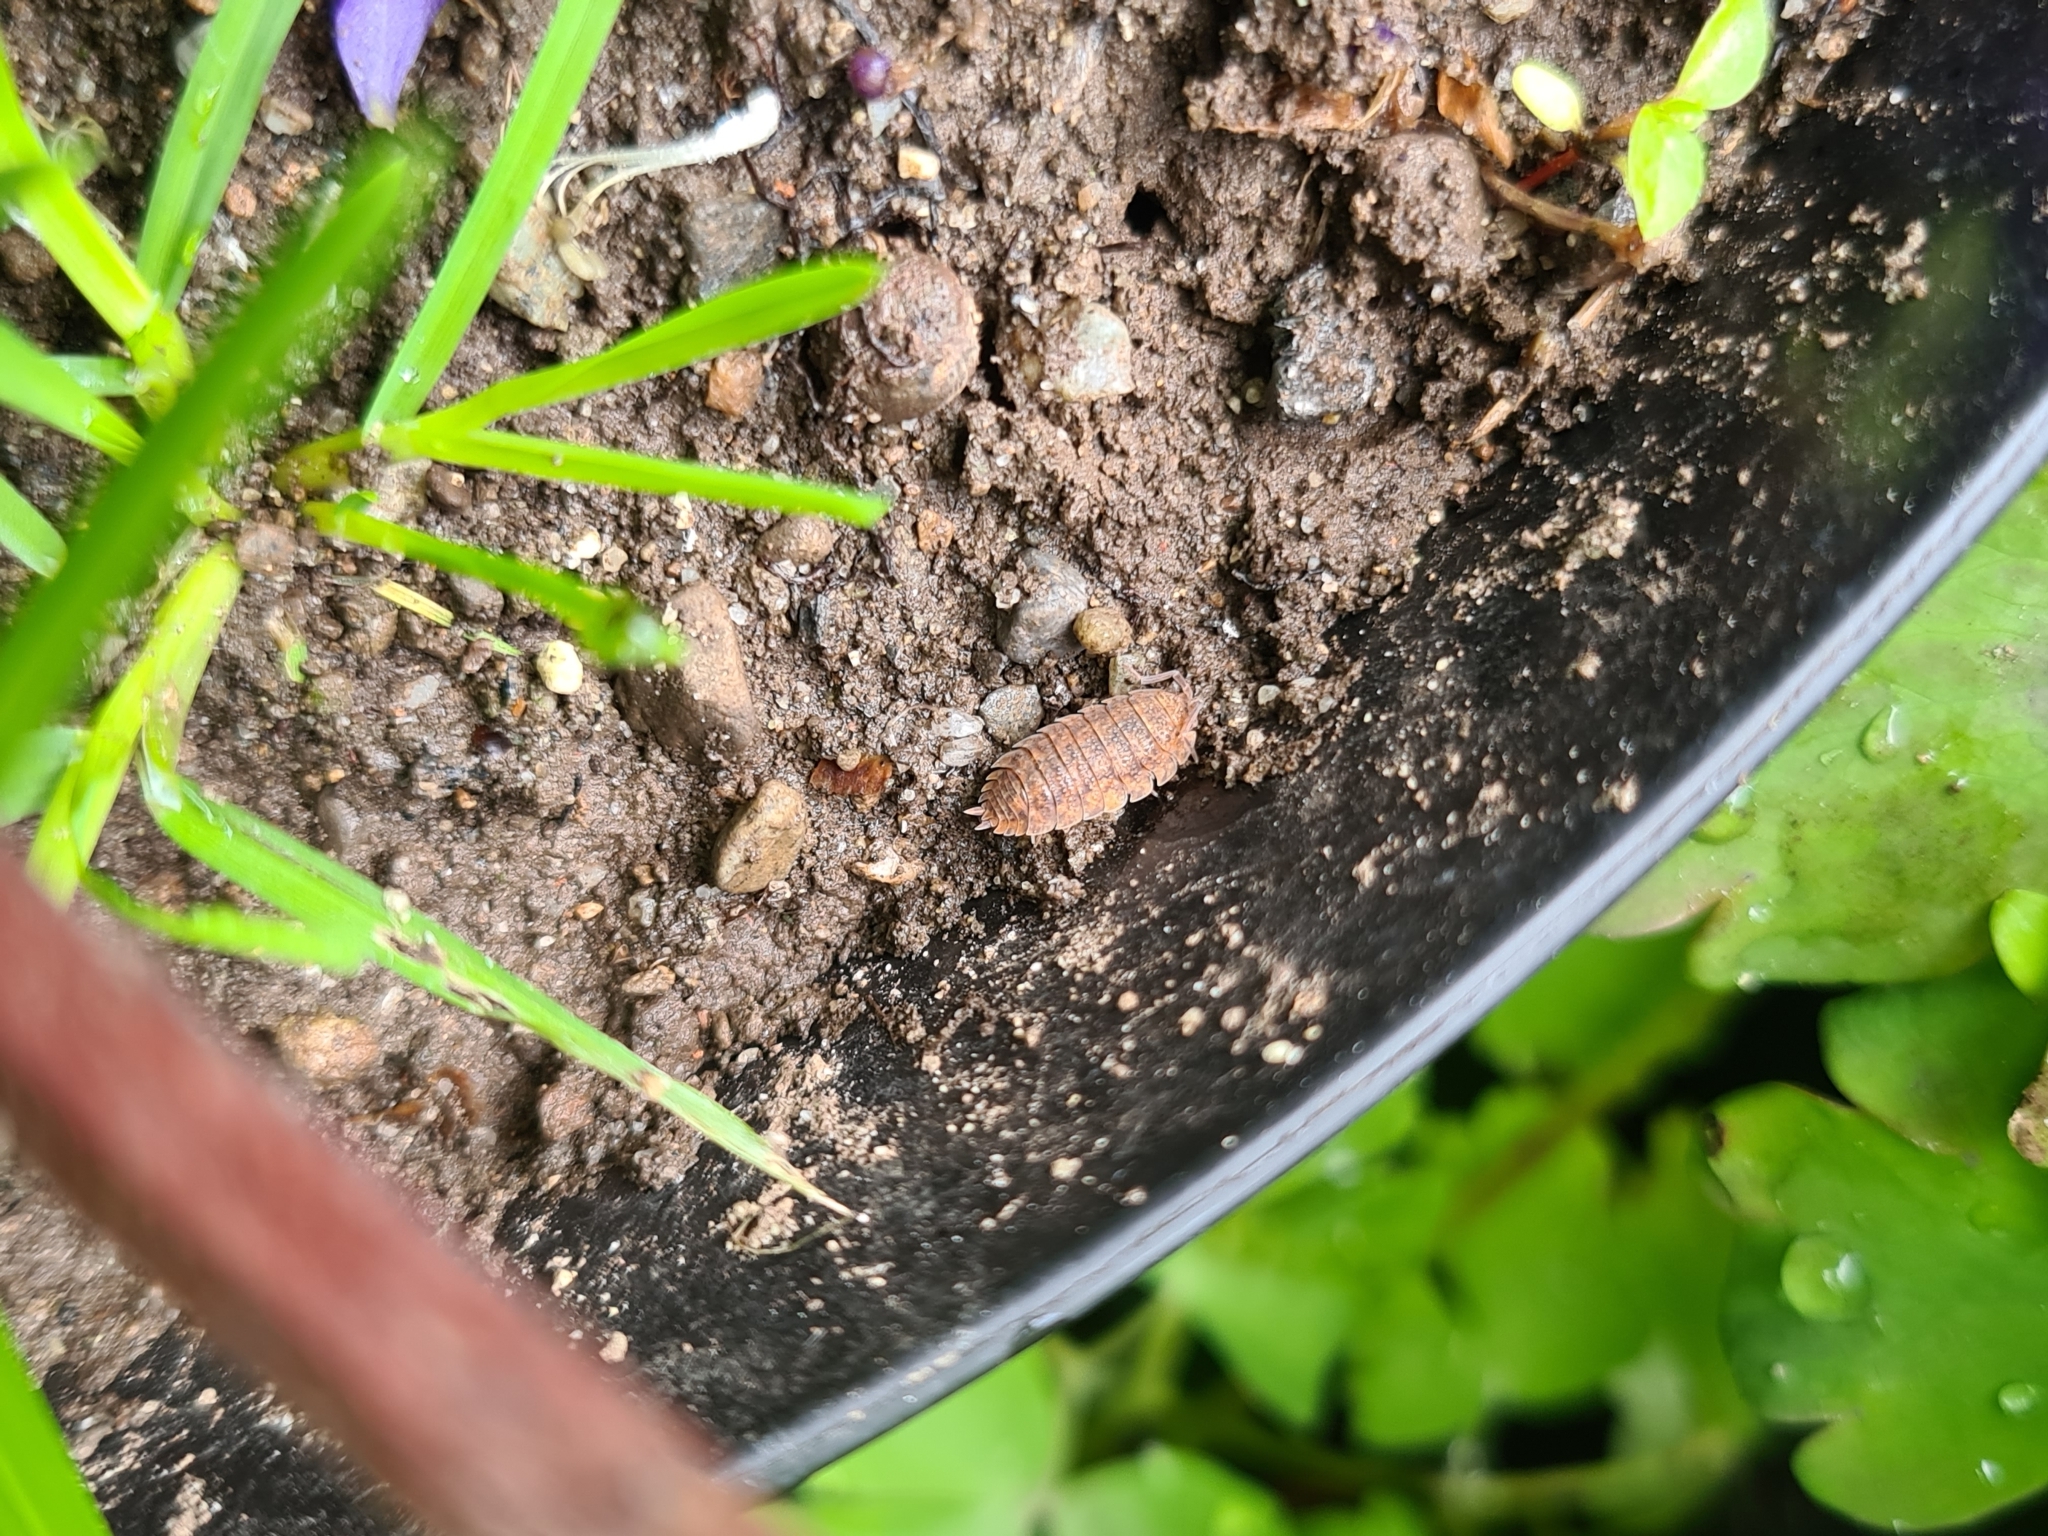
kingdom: Animalia
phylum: Arthropoda
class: Malacostraca
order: Isopoda
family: Porcellionidae
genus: Porcellio
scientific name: Porcellio scaber
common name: Common rough woodlouse
